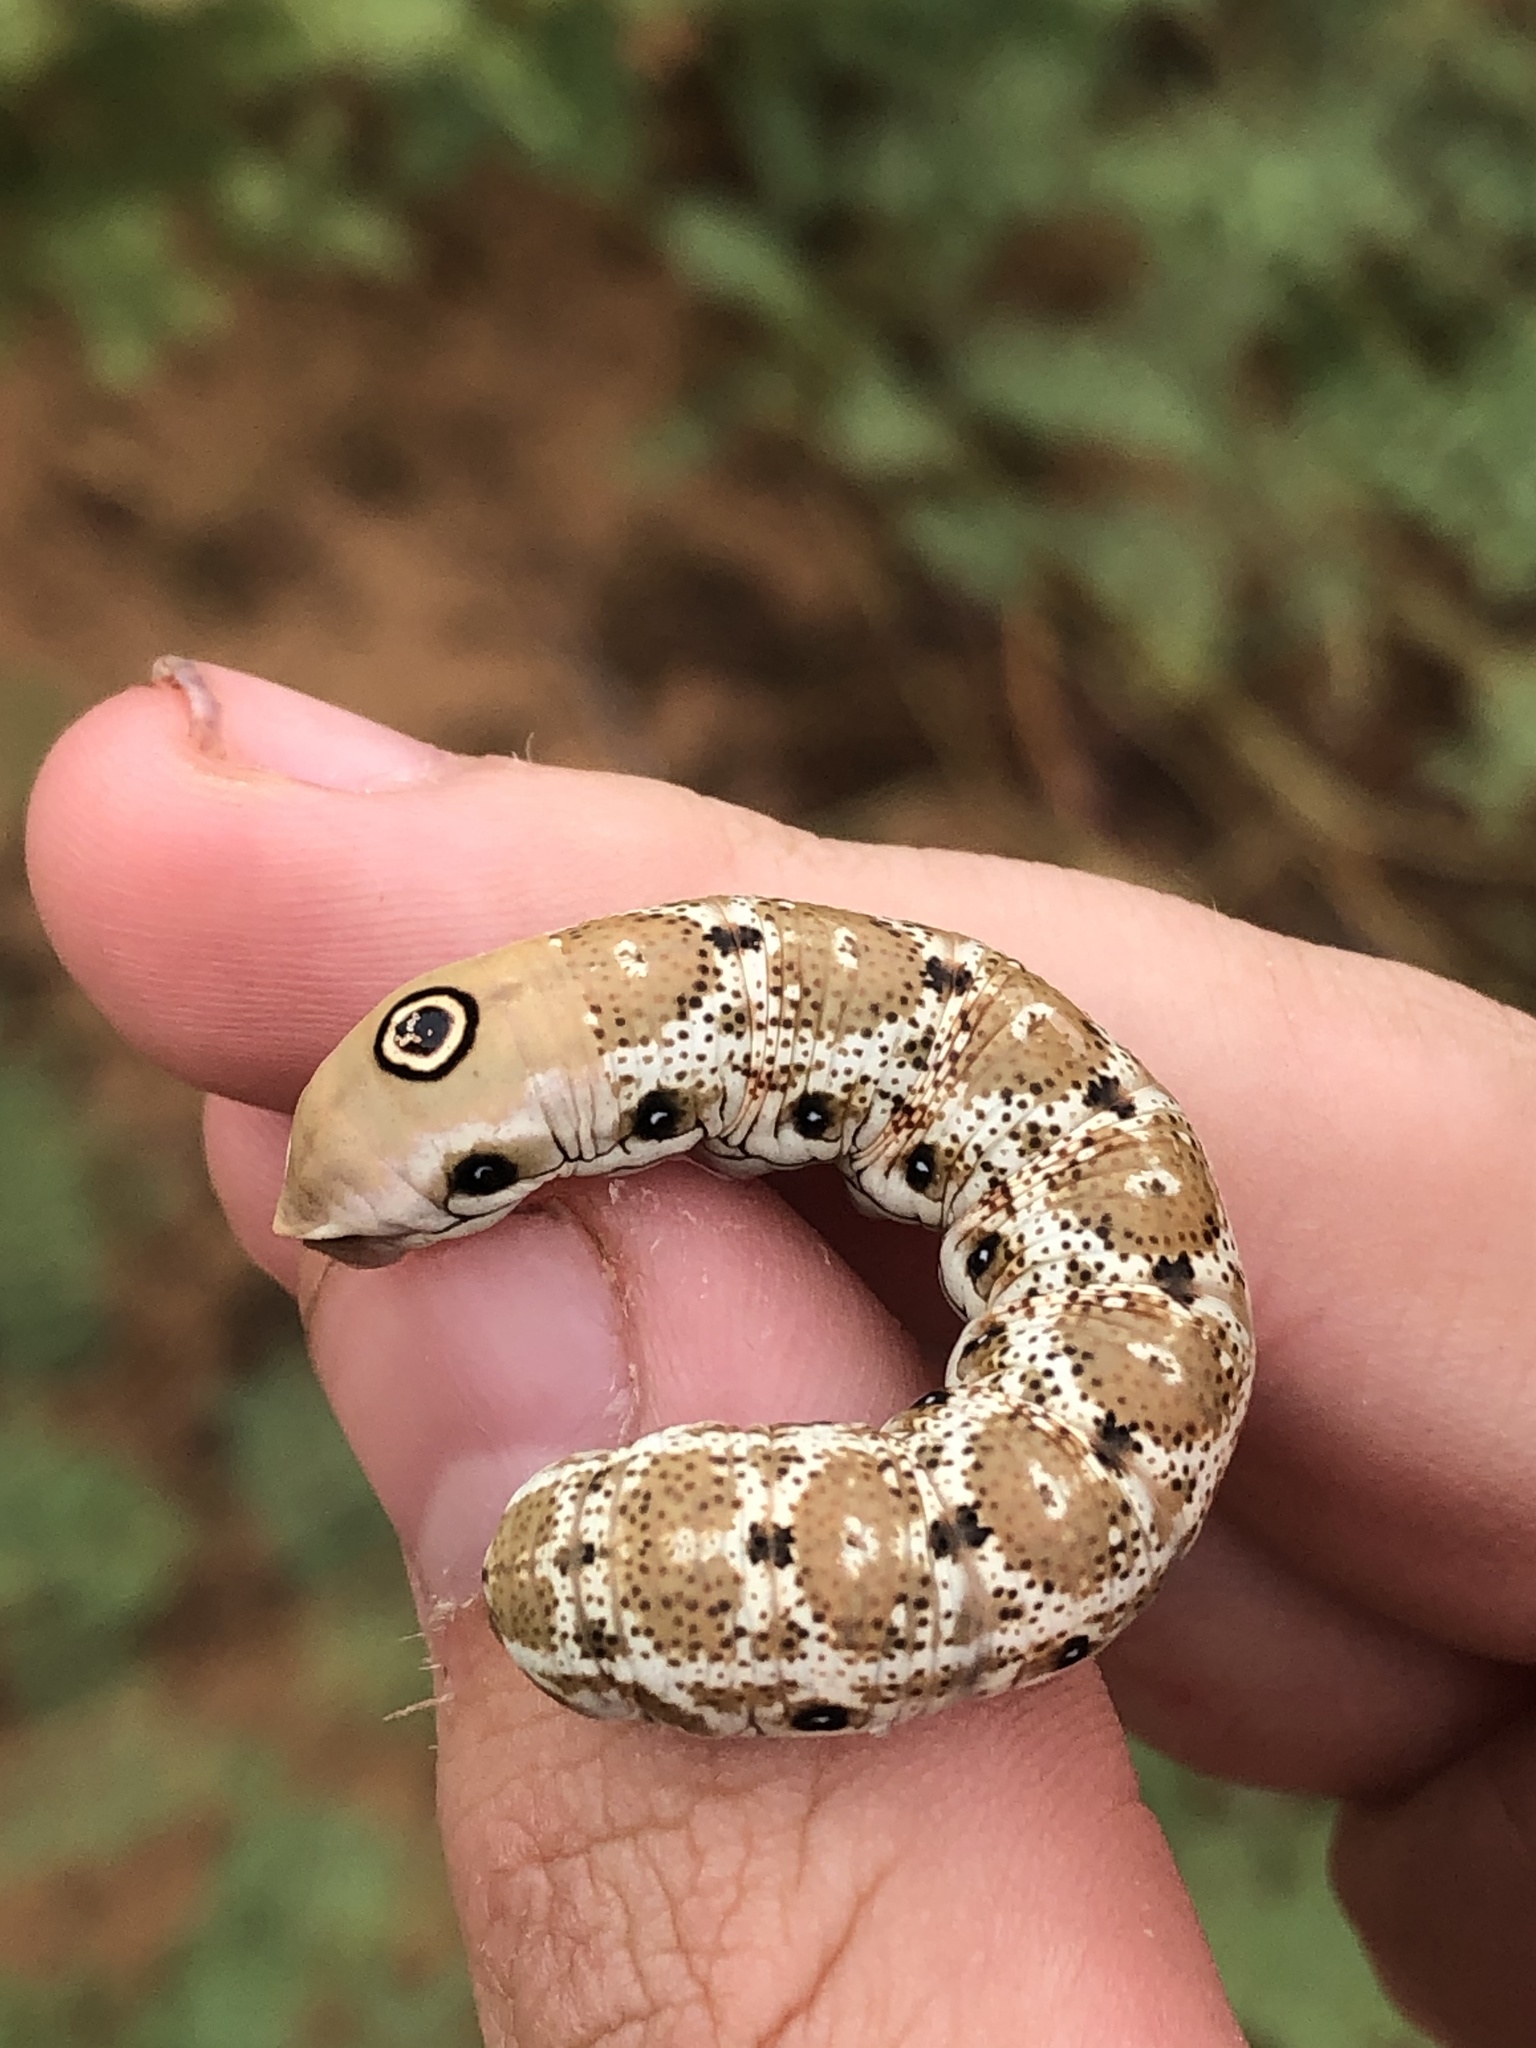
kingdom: Animalia
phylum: Arthropoda
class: Insecta
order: Lepidoptera
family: Sphingidae
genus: Proserpinus
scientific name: Proserpinus juanita
